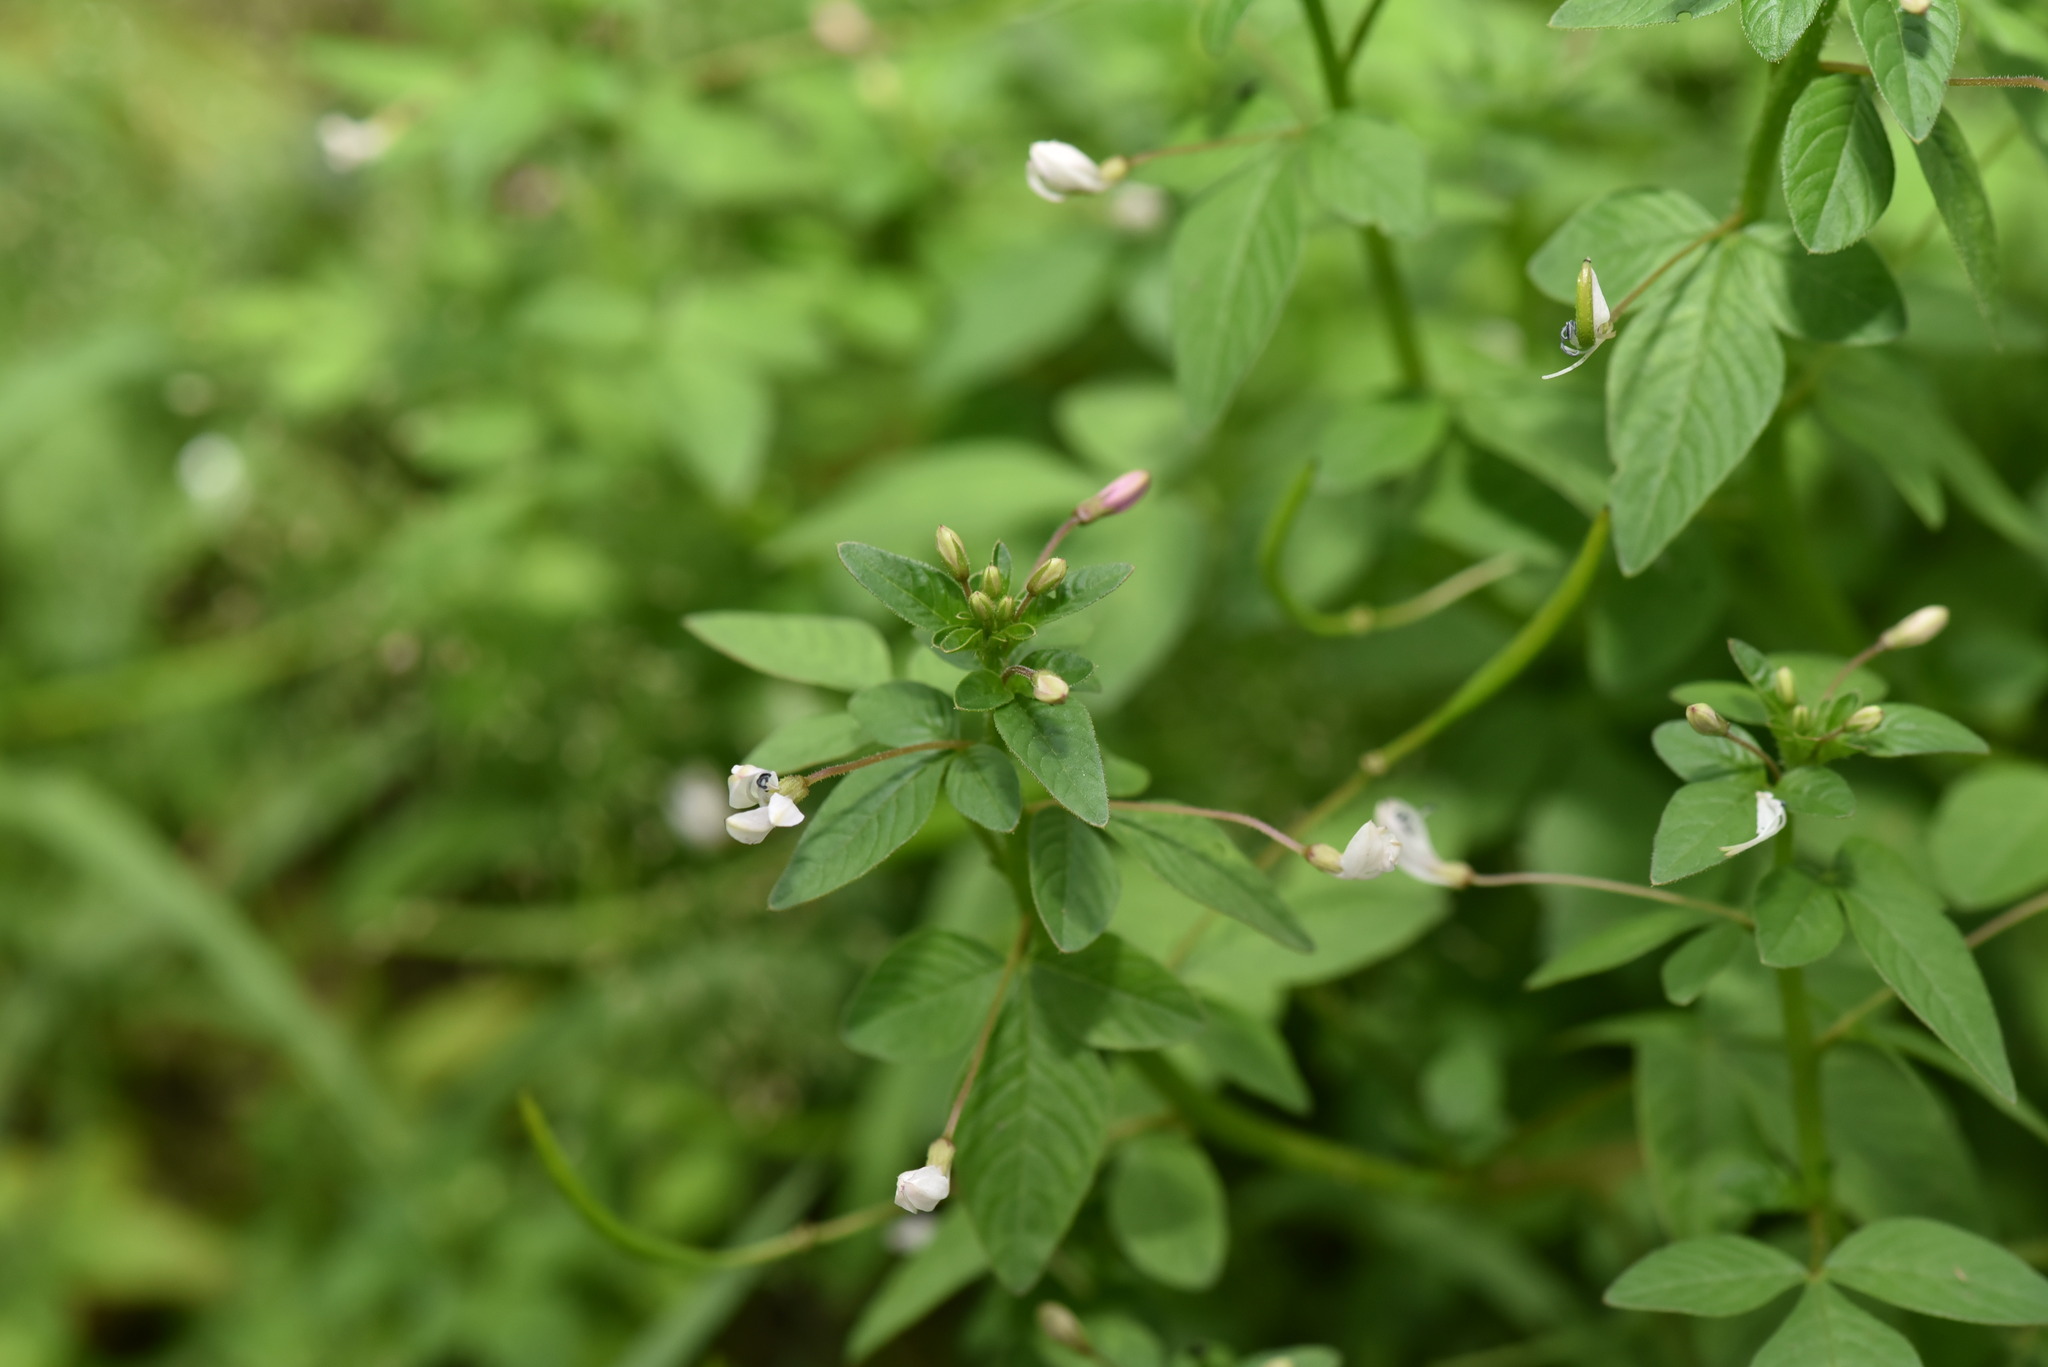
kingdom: Plantae
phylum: Tracheophyta
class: Magnoliopsida
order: Brassicales
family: Cleomaceae
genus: Sieruela
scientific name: Sieruela rutidosperma
